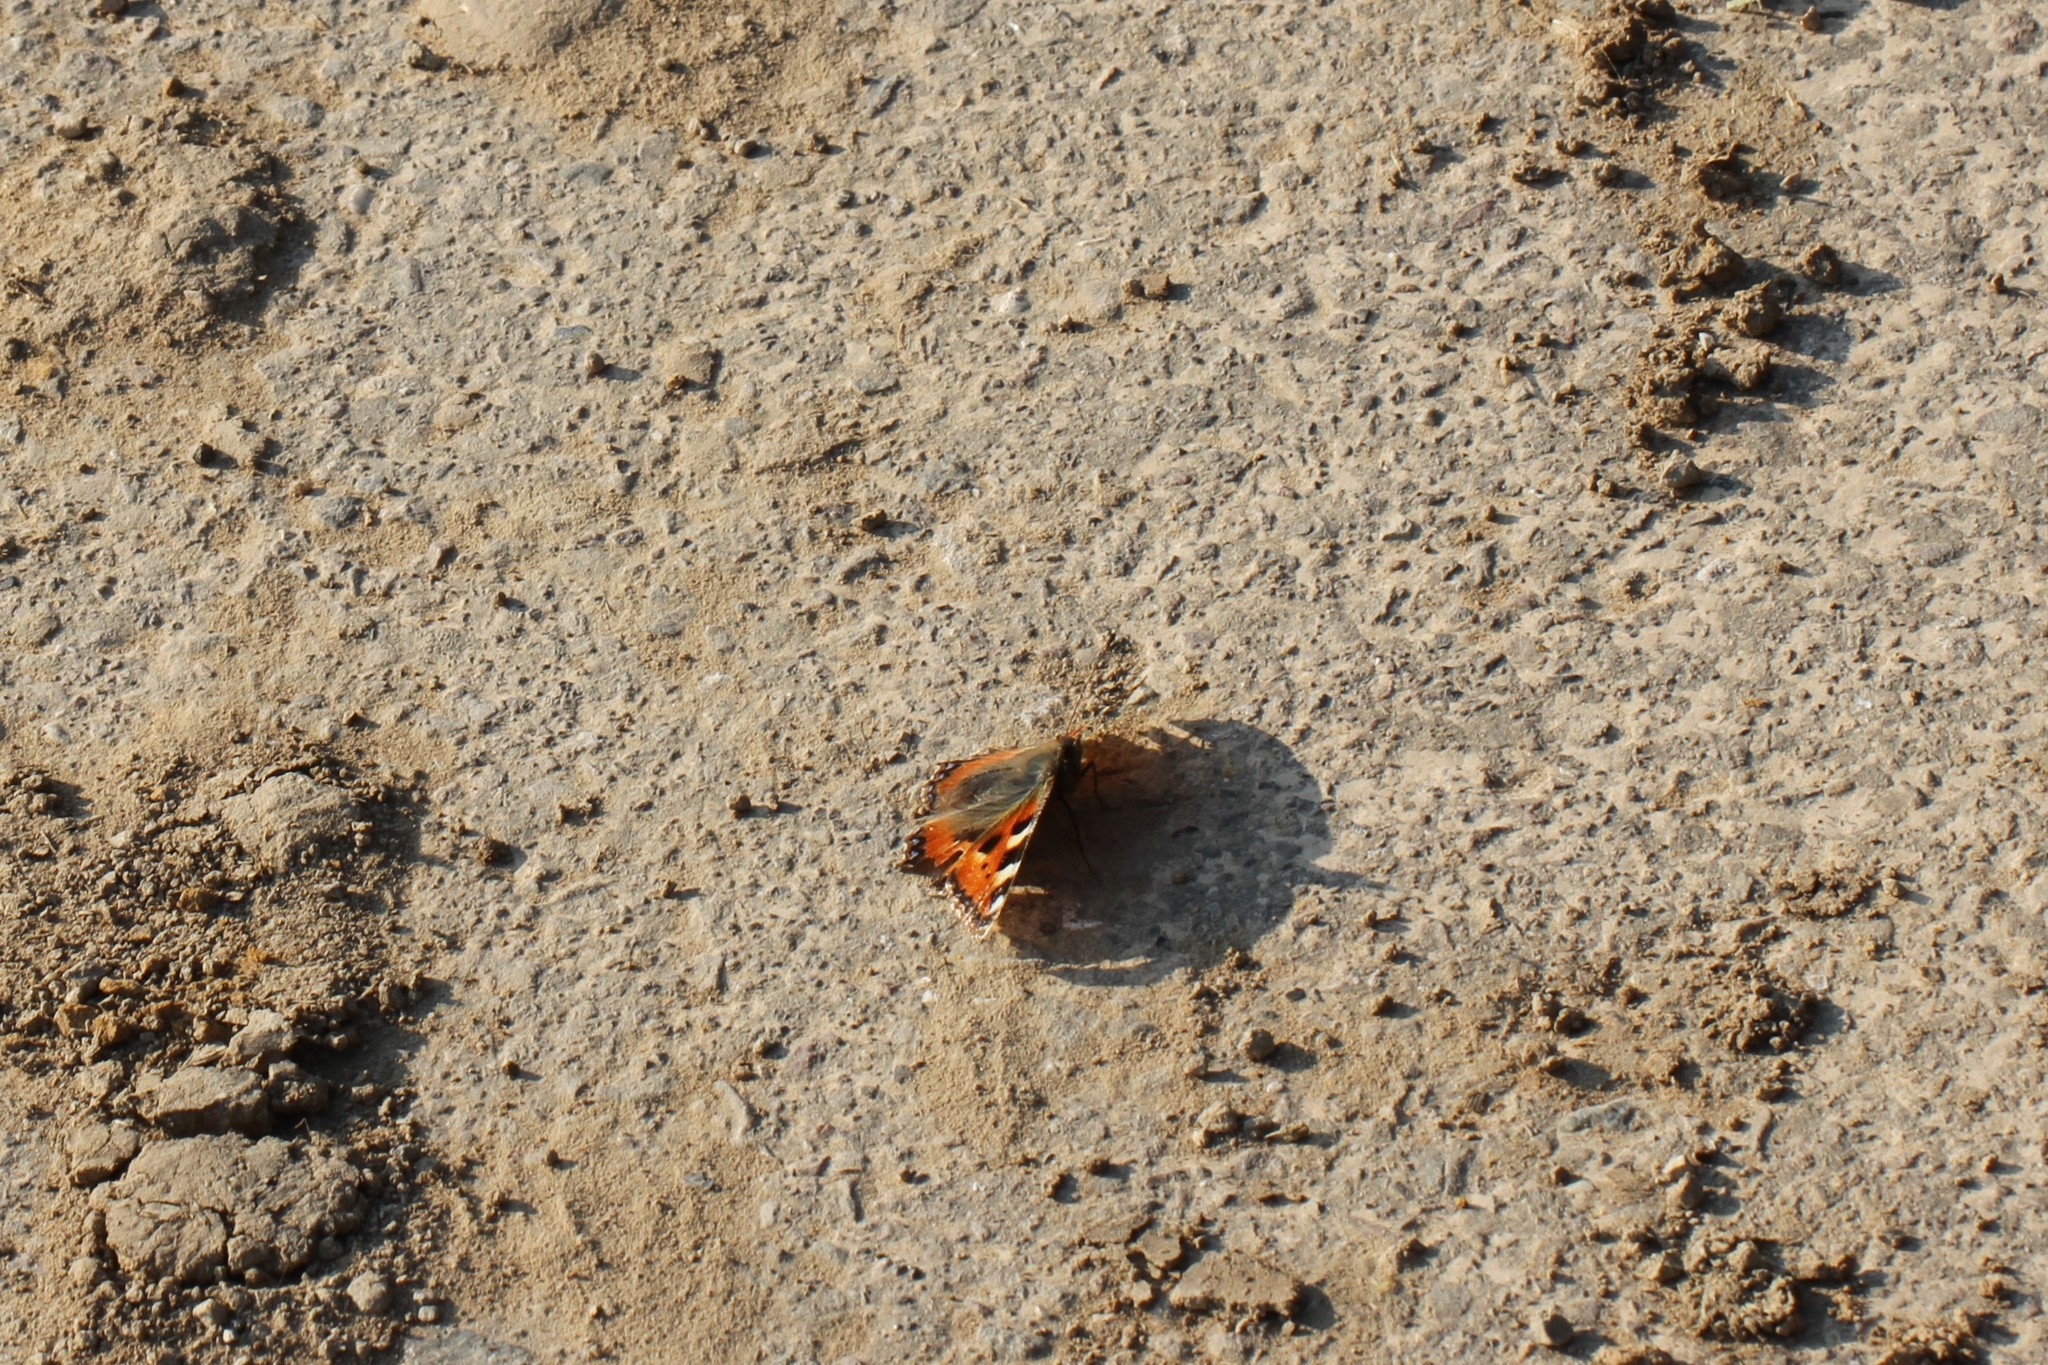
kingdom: Animalia
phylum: Arthropoda
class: Insecta
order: Lepidoptera
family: Nymphalidae
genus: Aglais
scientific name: Aglais urticae
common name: Small tortoiseshell
